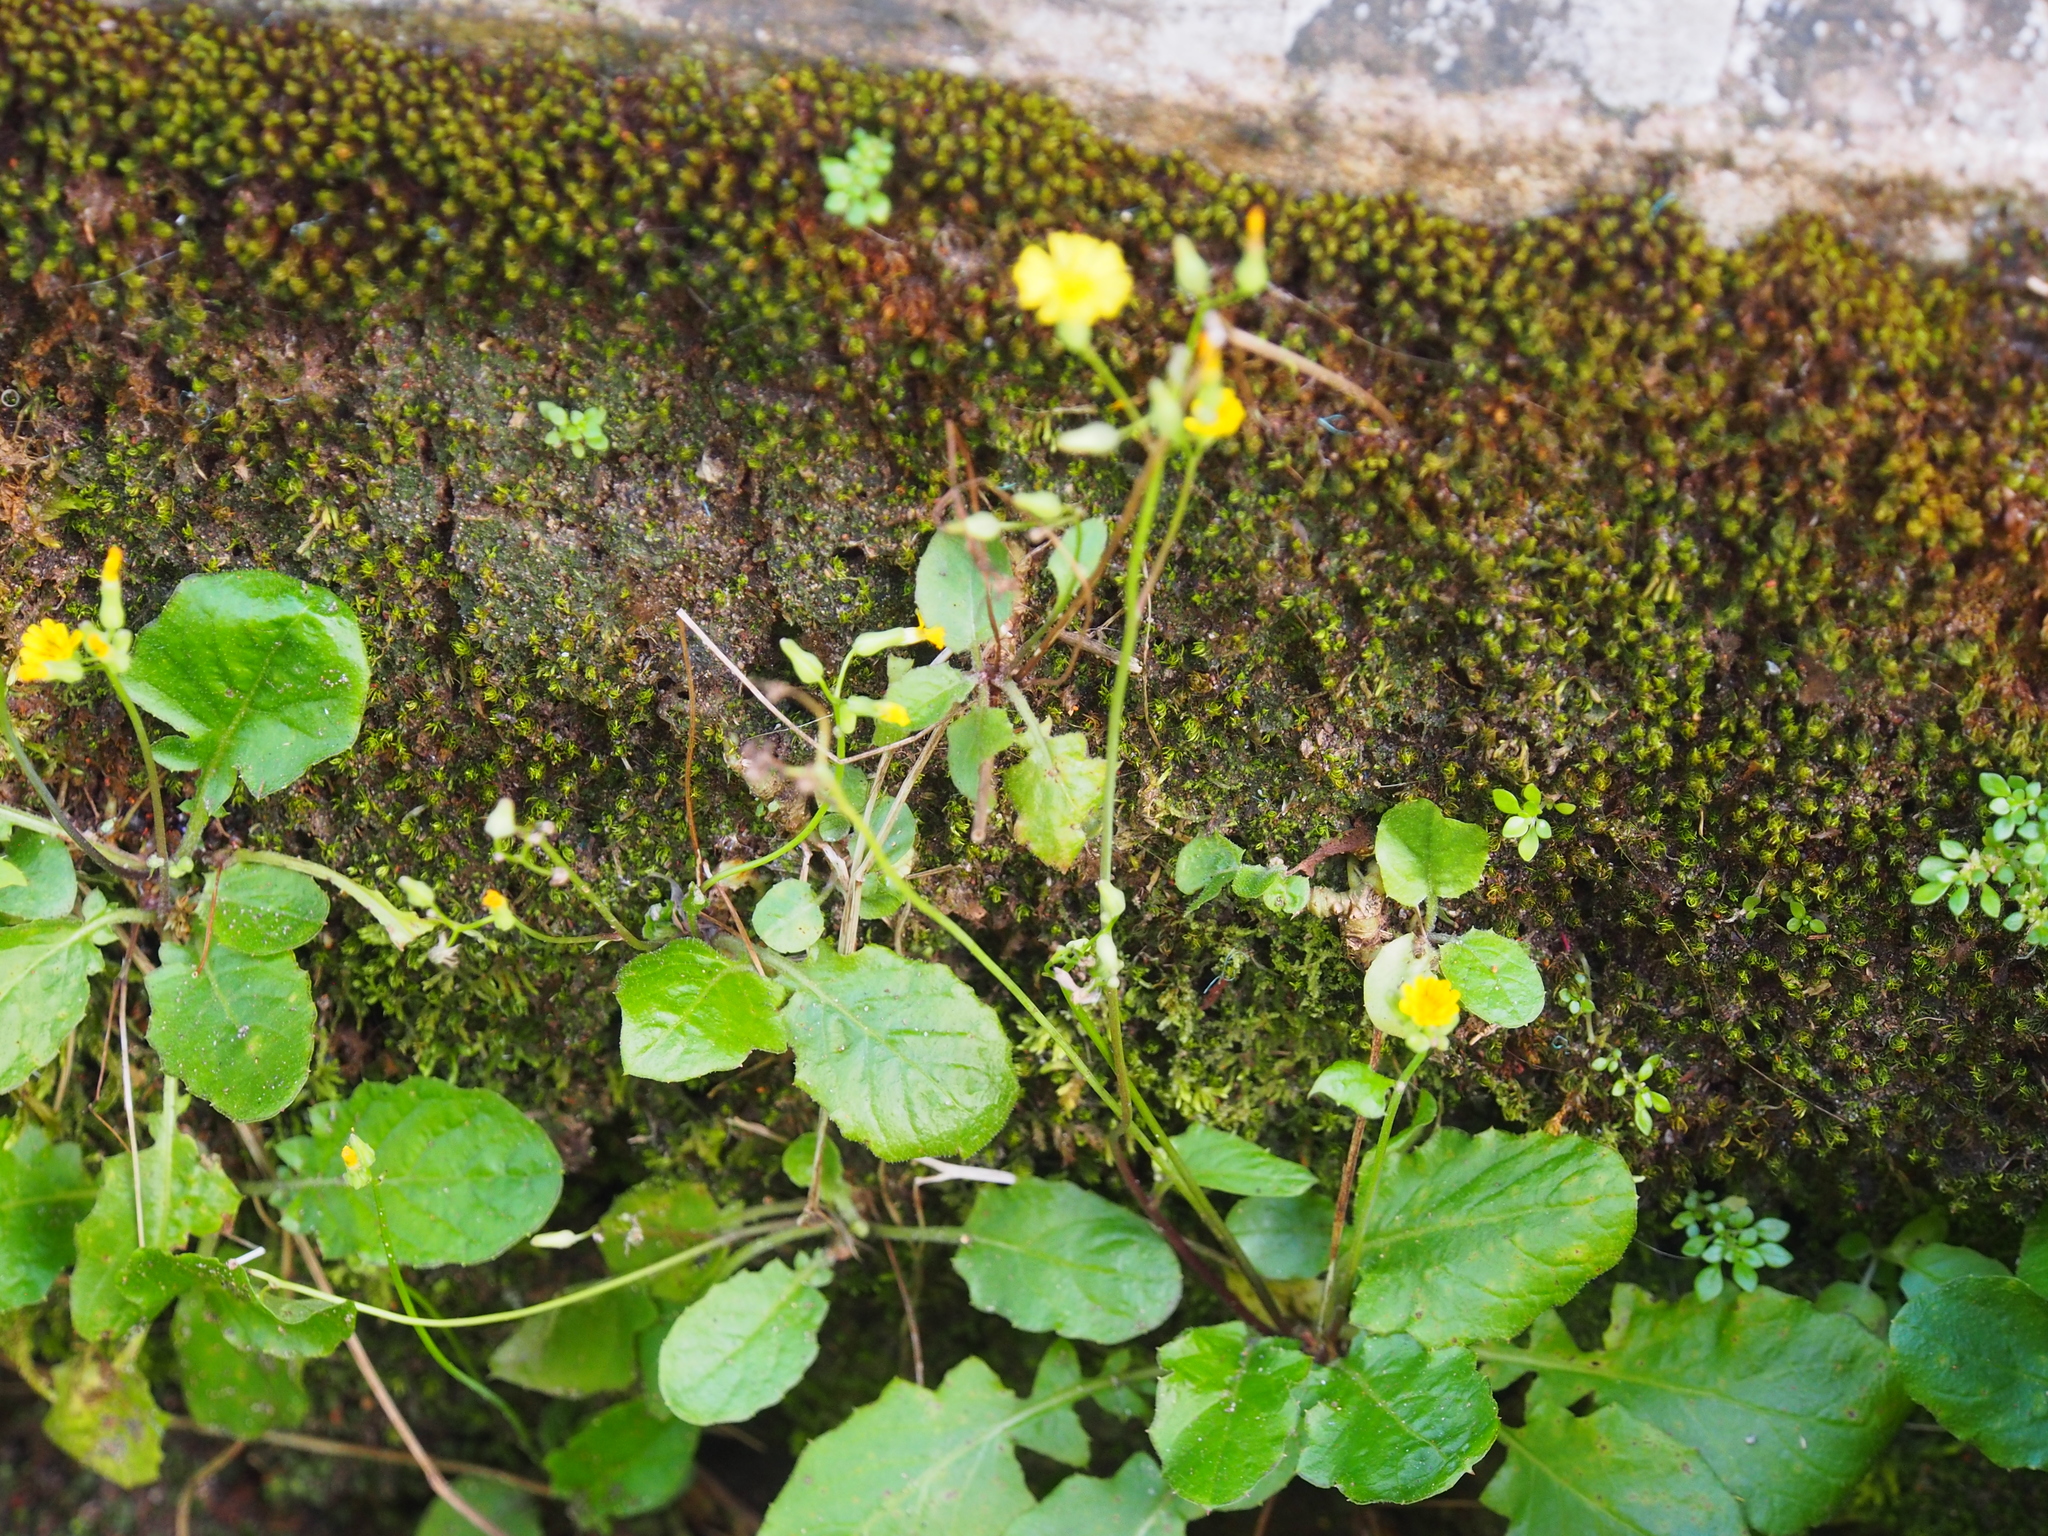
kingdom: Plantae
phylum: Tracheophyta
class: Magnoliopsida
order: Asterales
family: Asteraceae
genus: Youngia
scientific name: Youngia japonica
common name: Oriental false hawksbeard
